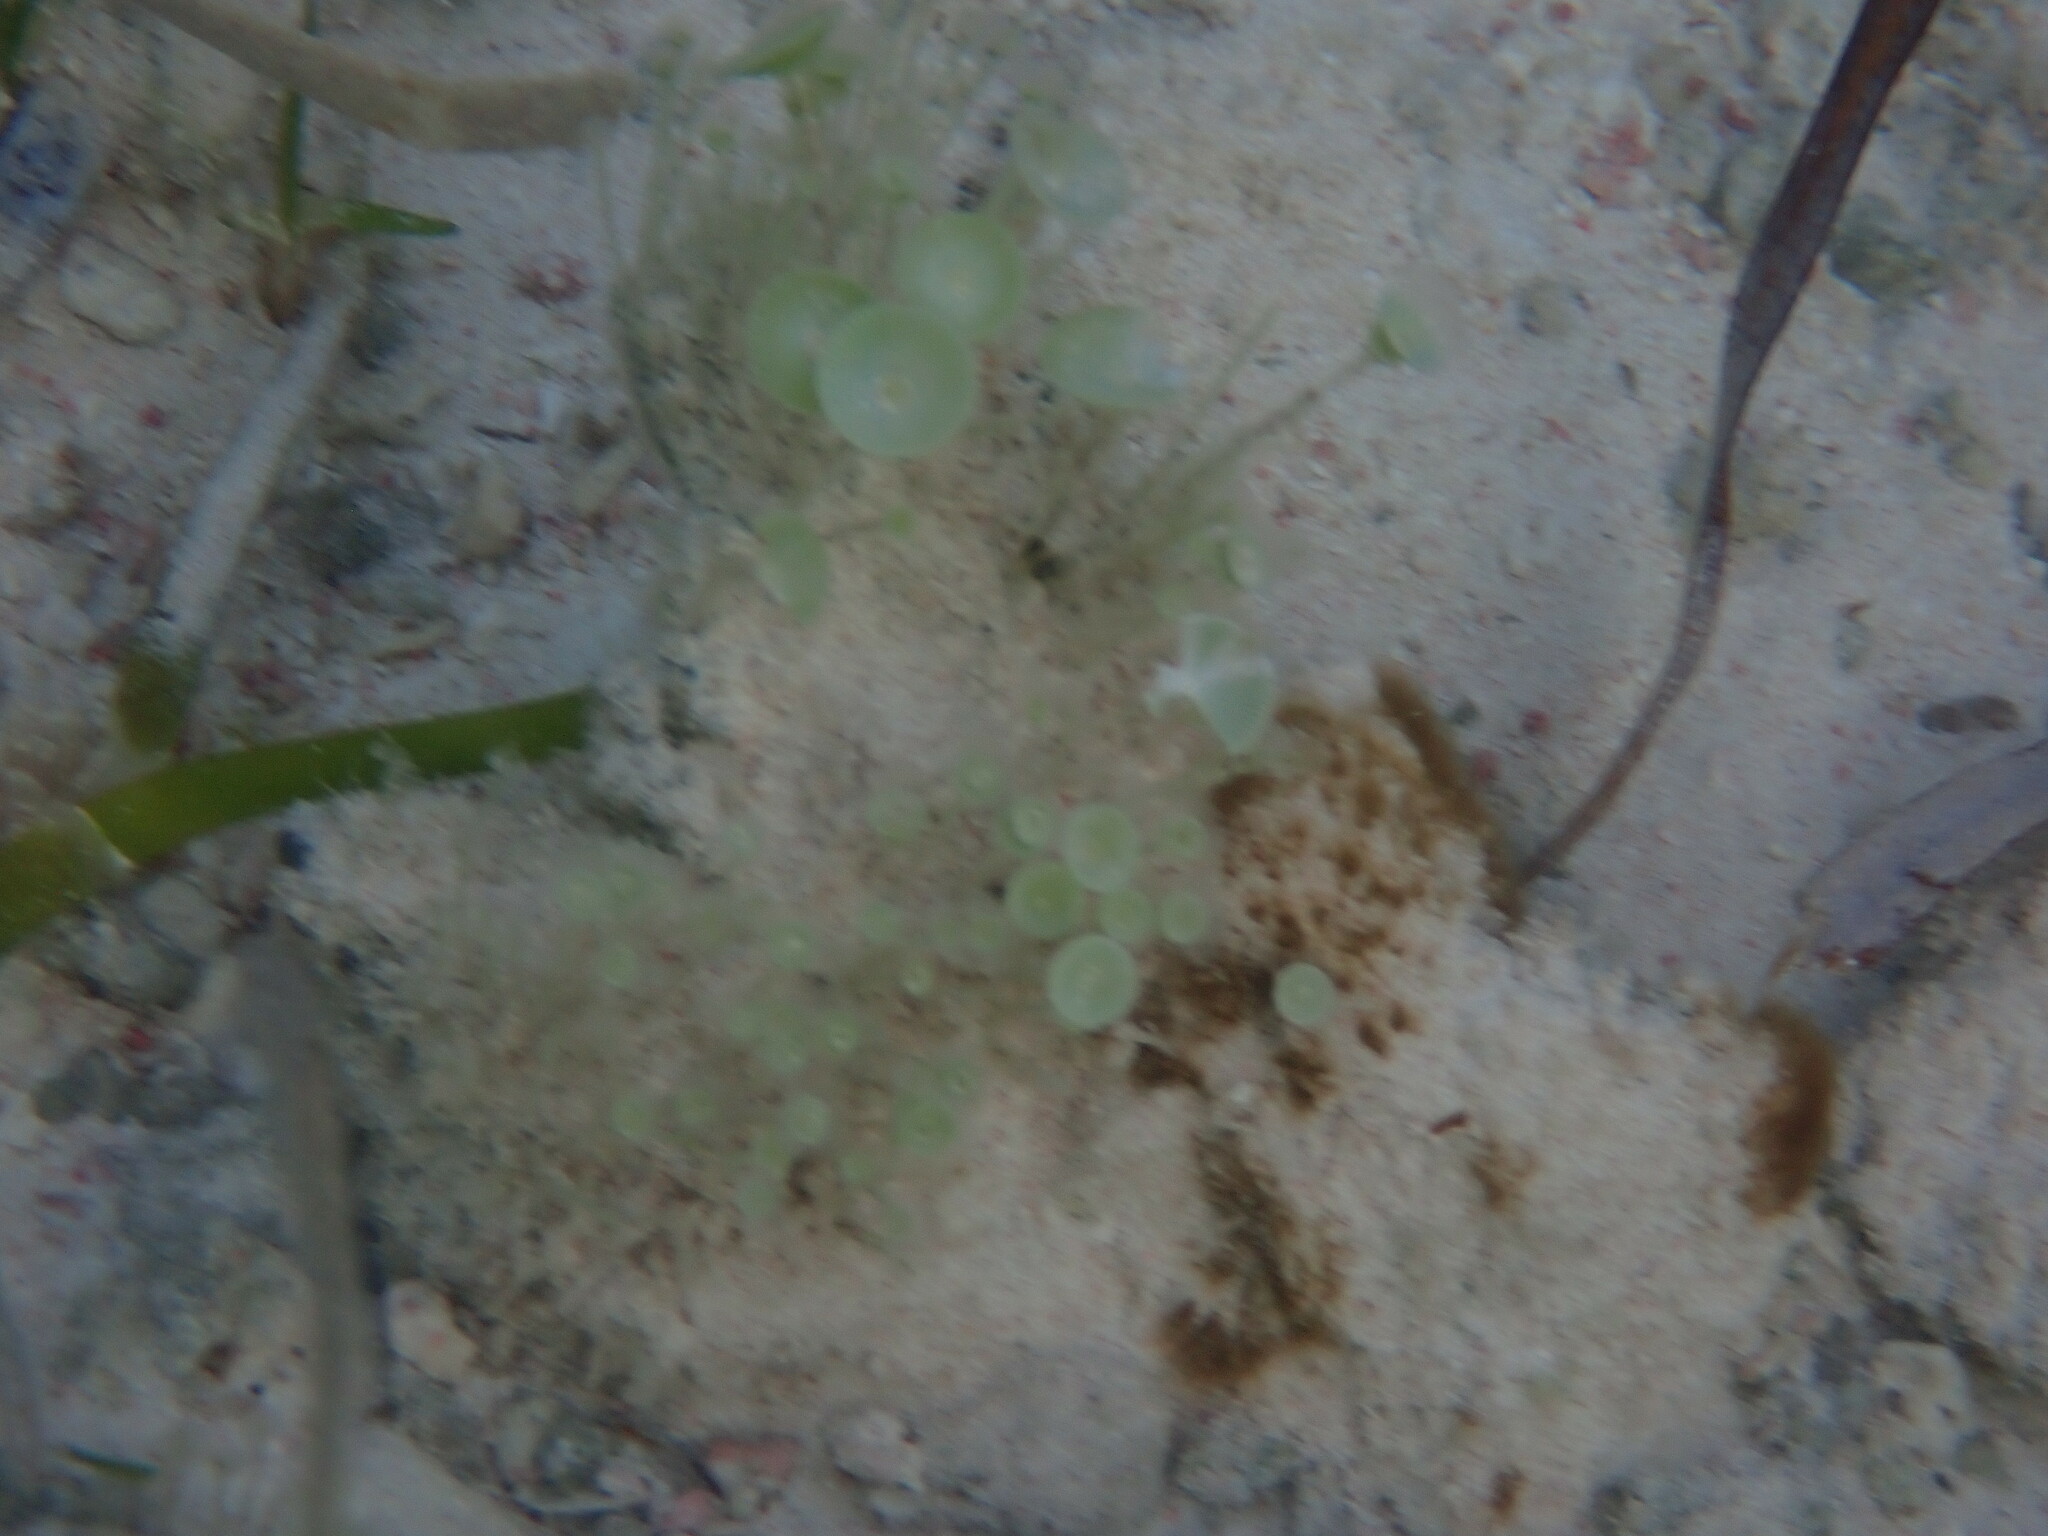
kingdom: Plantae
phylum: Chlorophyta
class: Ulvophyceae
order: Dasycladales
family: Polyphysaceae
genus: Acetabularia
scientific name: Acetabularia acetabulum
